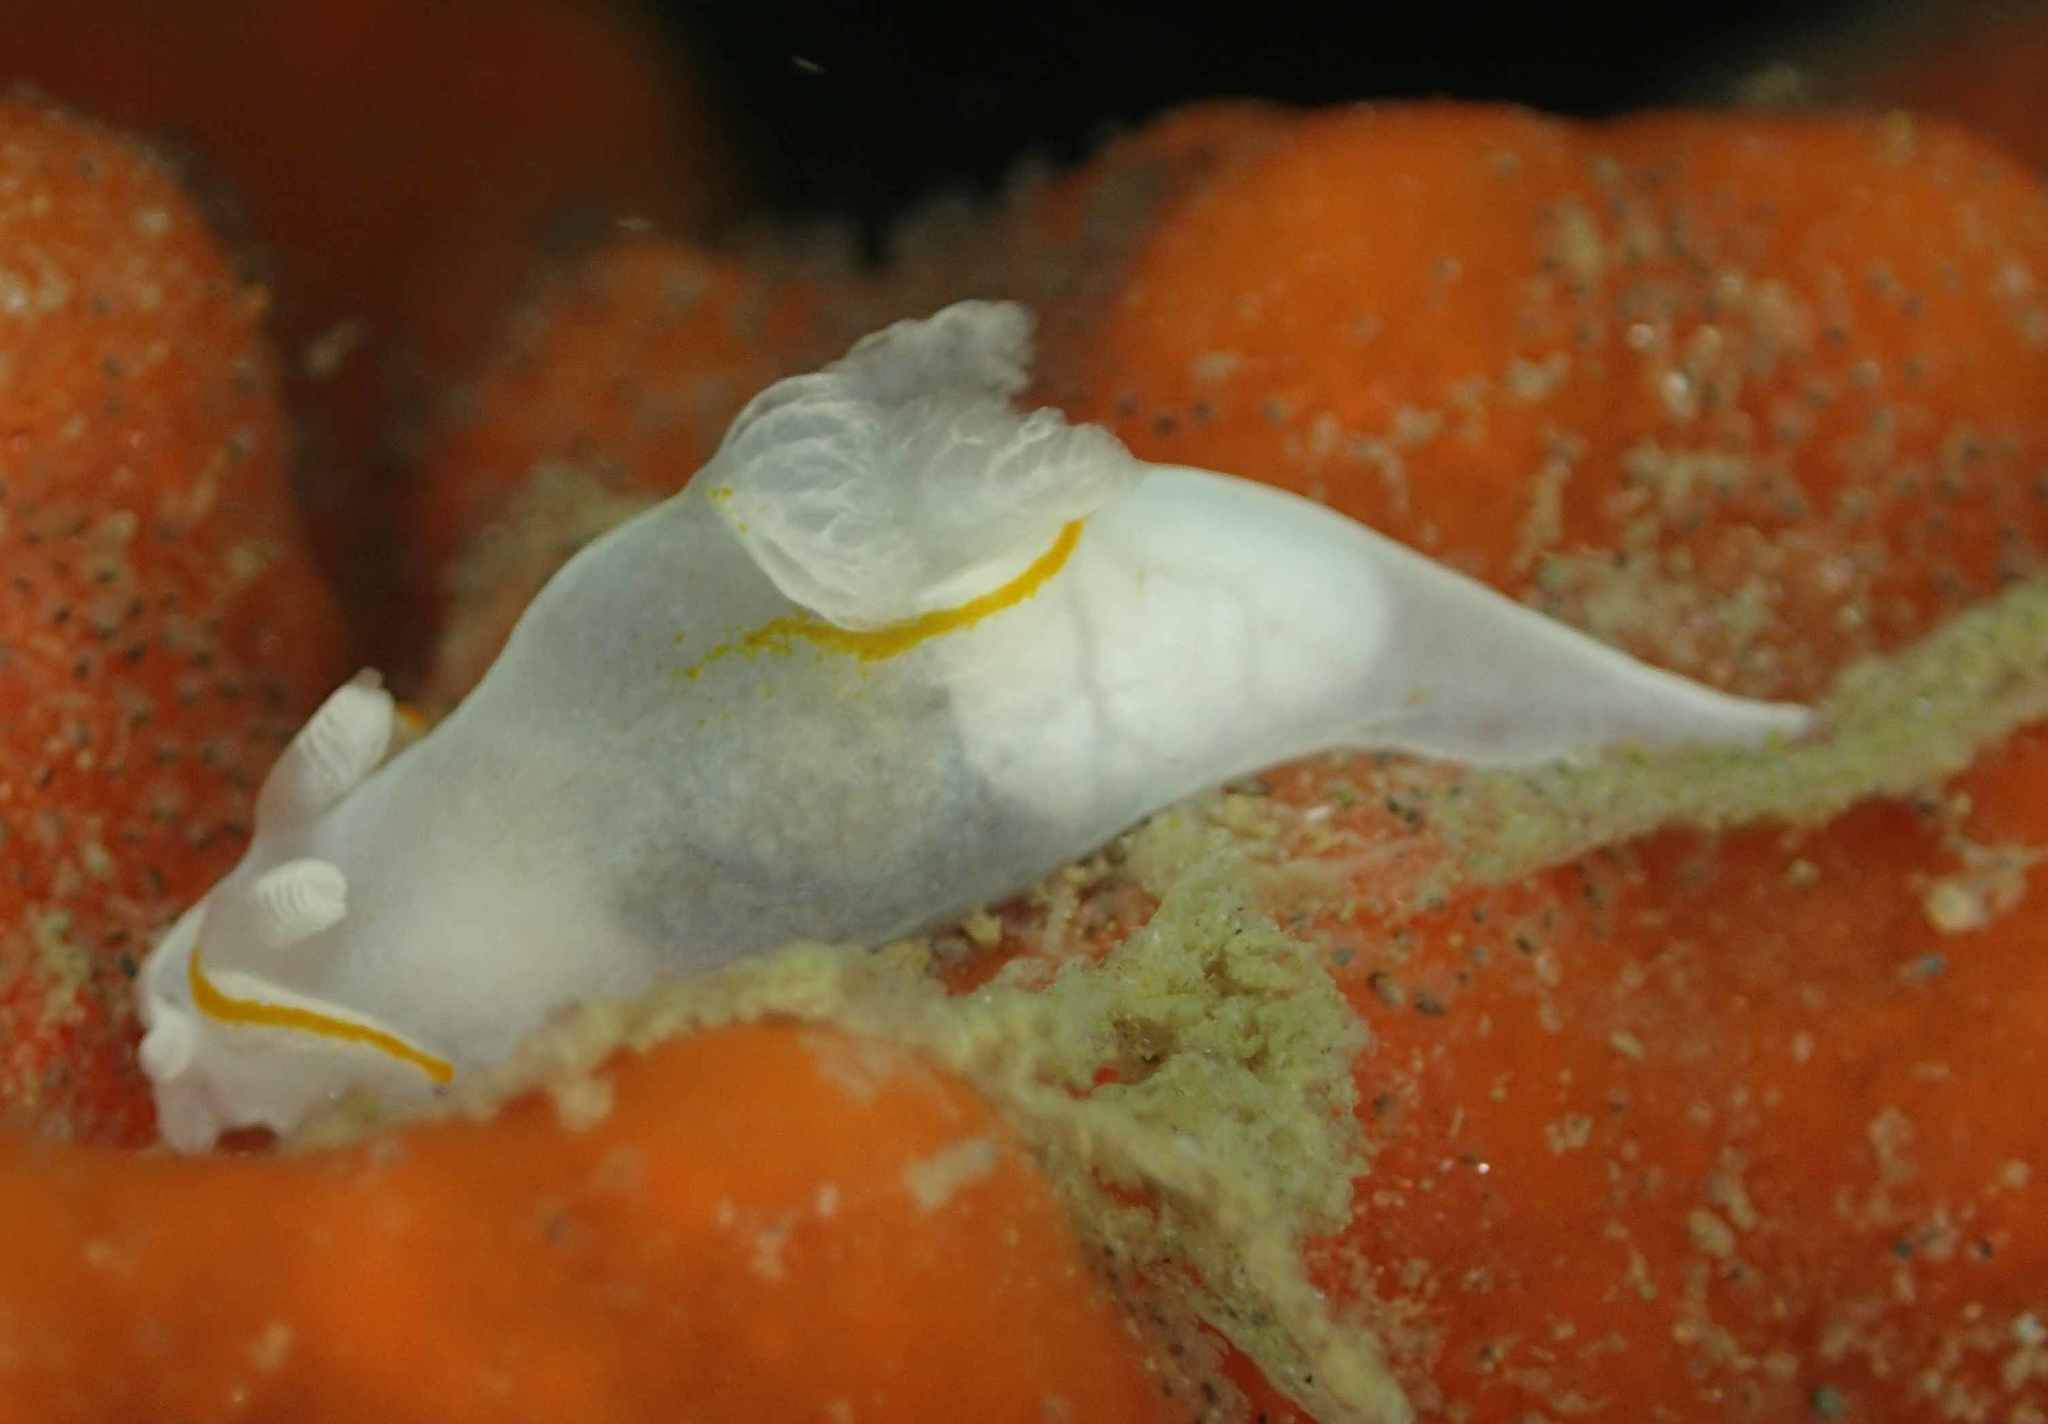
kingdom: Animalia
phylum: Mollusca
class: Gastropoda
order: Nudibranchia
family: Goniodorididae
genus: Trapania
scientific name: Trapania rudmani
